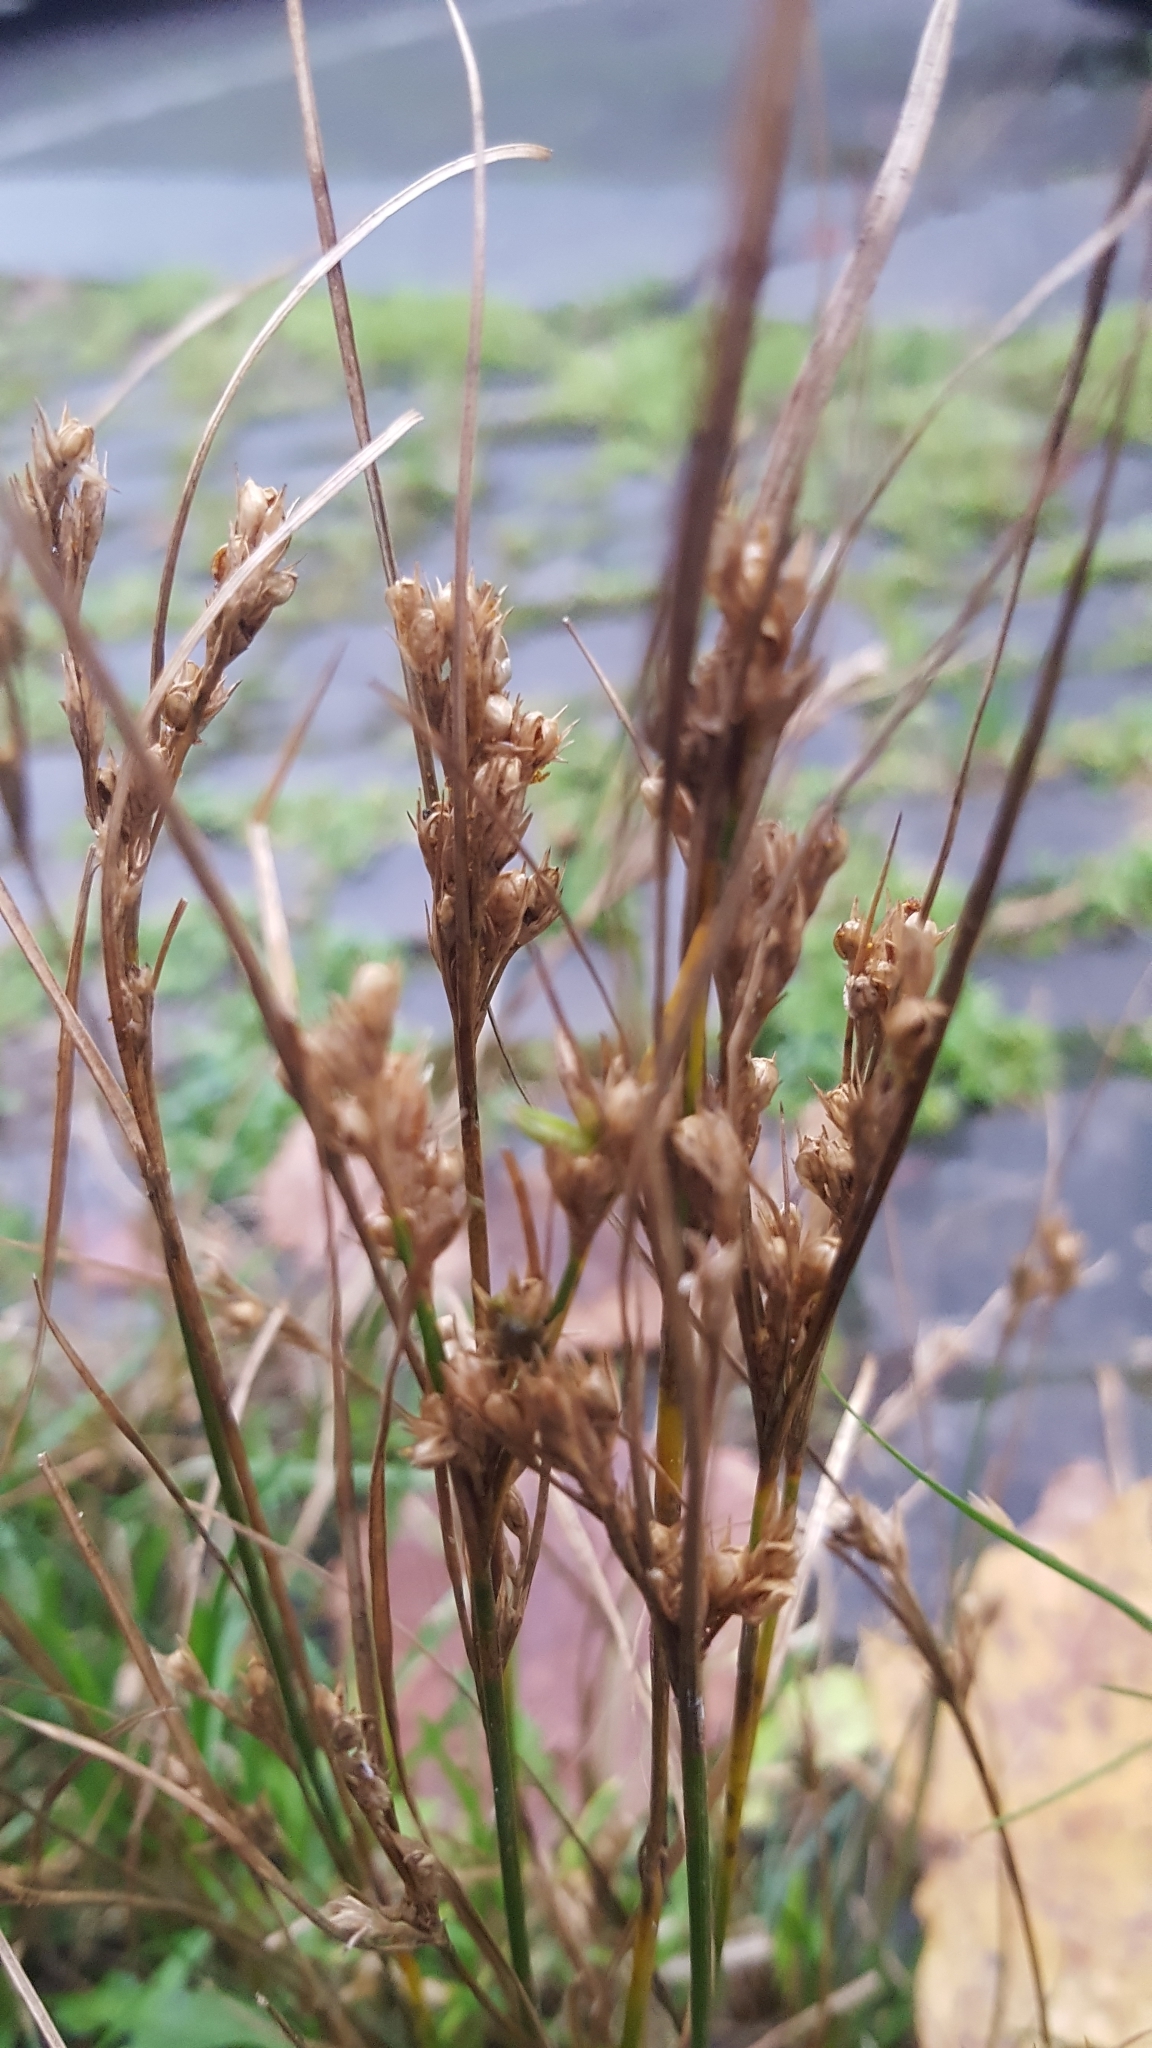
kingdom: Plantae
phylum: Tracheophyta
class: Liliopsida
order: Poales
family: Juncaceae
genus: Juncus
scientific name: Juncus tenuis
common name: Slender rush
